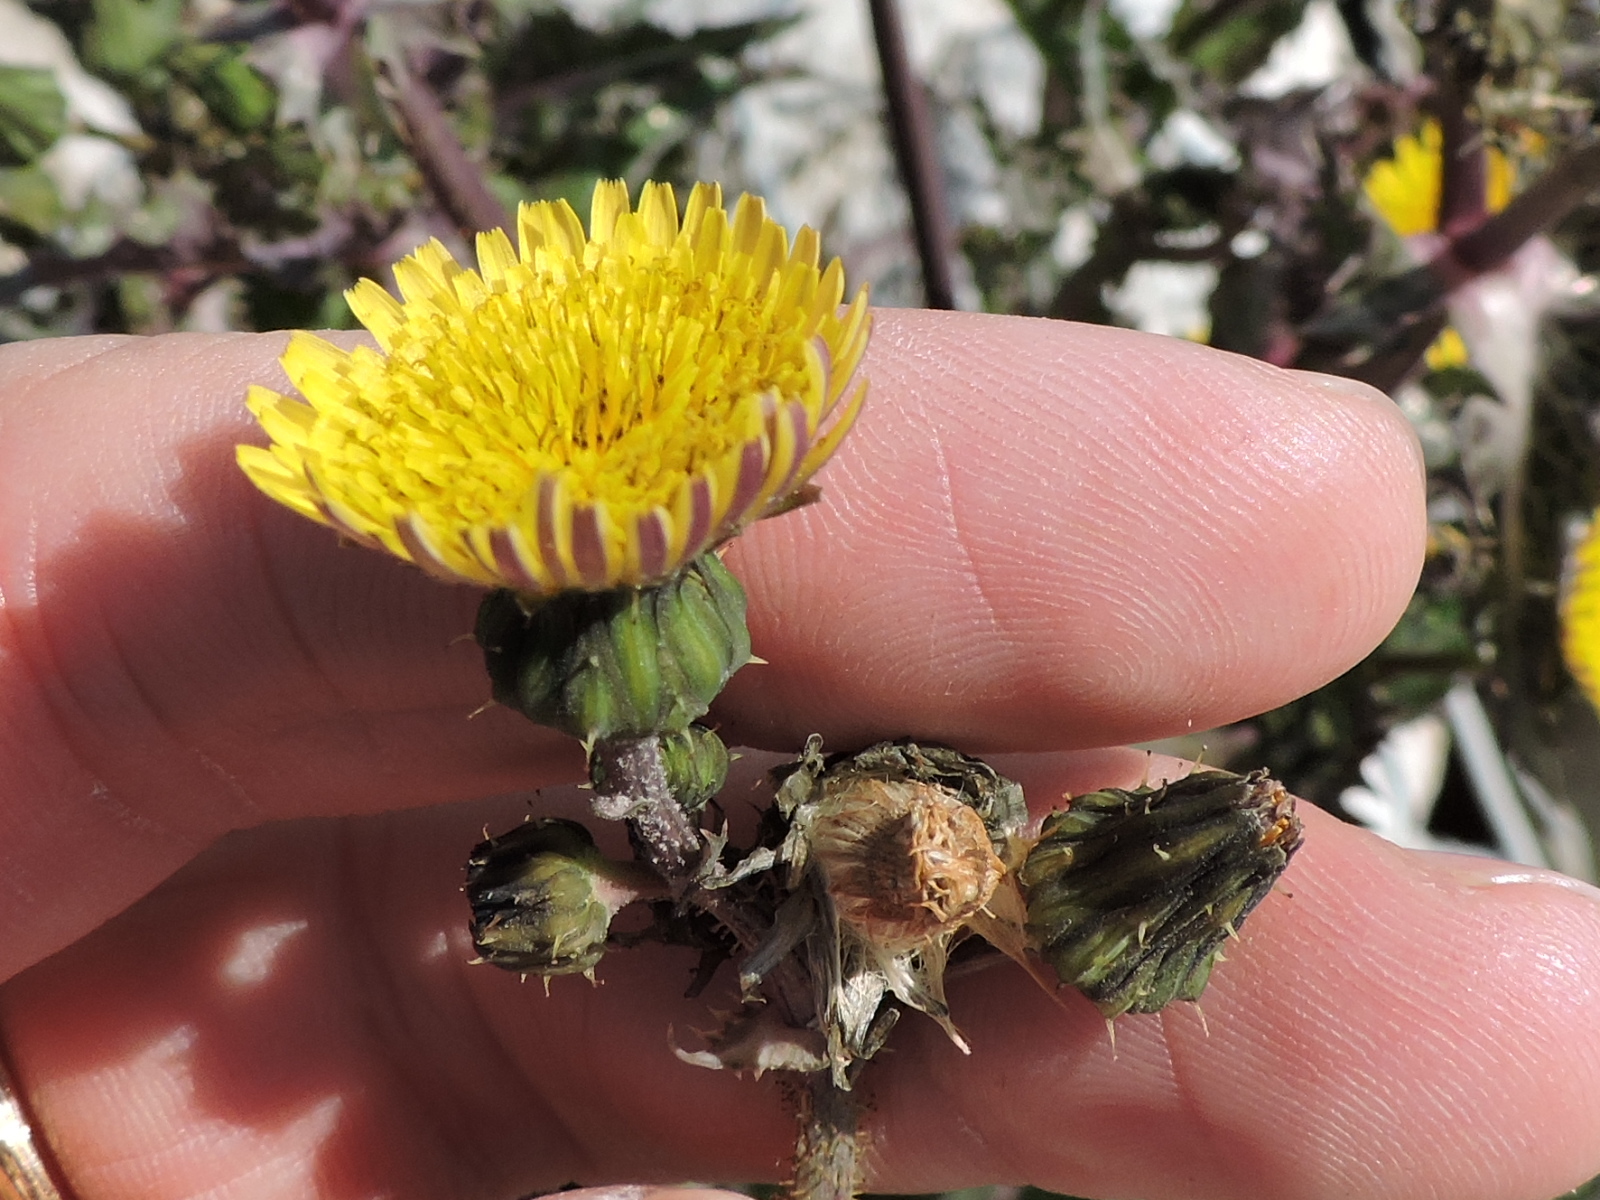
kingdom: Plantae
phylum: Tracheophyta
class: Magnoliopsida
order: Asterales
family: Asteraceae
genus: Sonchus
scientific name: Sonchus asper
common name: Prickly sow-thistle
